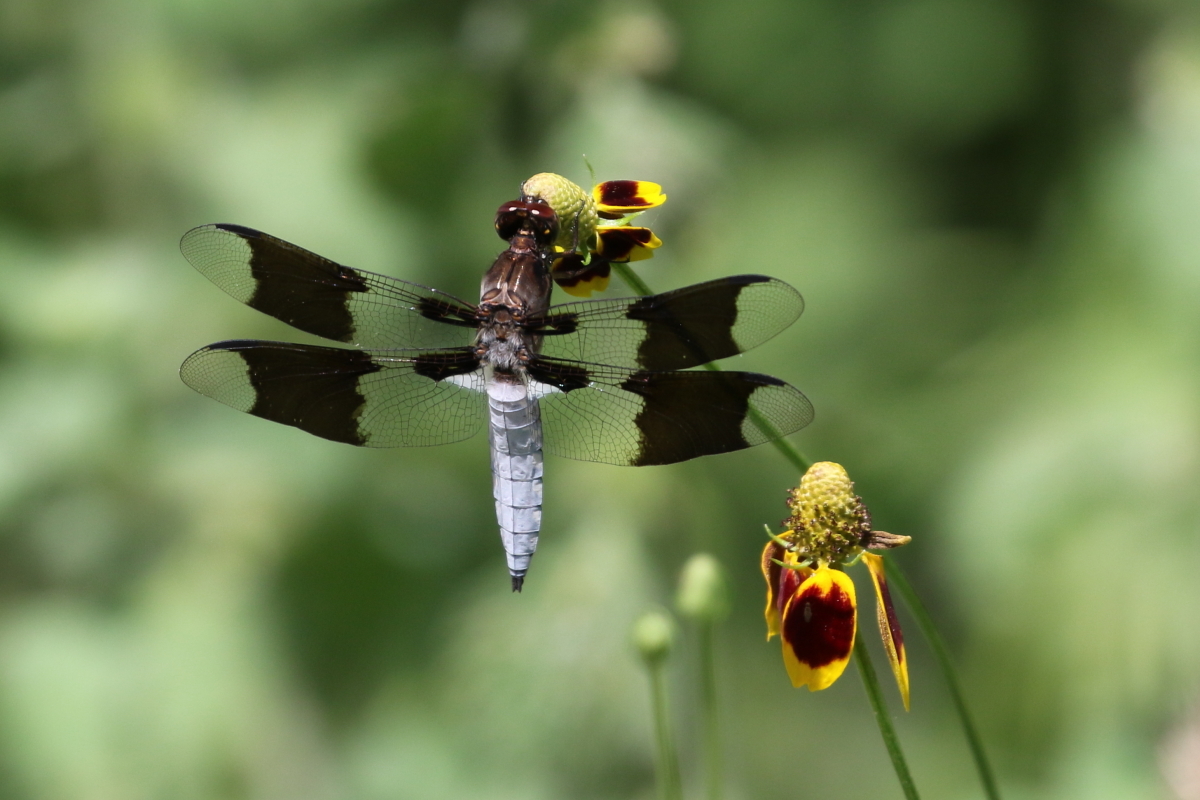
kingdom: Animalia
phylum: Arthropoda
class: Insecta
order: Odonata
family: Libellulidae
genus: Plathemis
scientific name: Plathemis lydia
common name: Common whitetail
